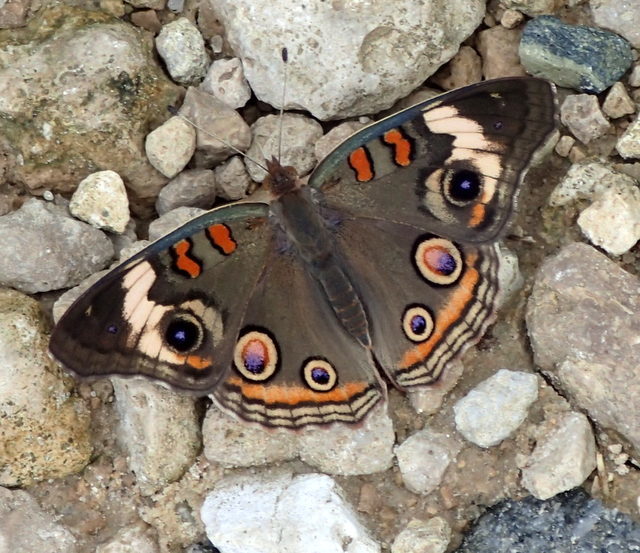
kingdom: Animalia
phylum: Arthropoda
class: Insecta
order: Lepidoptera
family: Nymphalidae
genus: Junonia
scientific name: Junonia coenia
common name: Common buckeye
